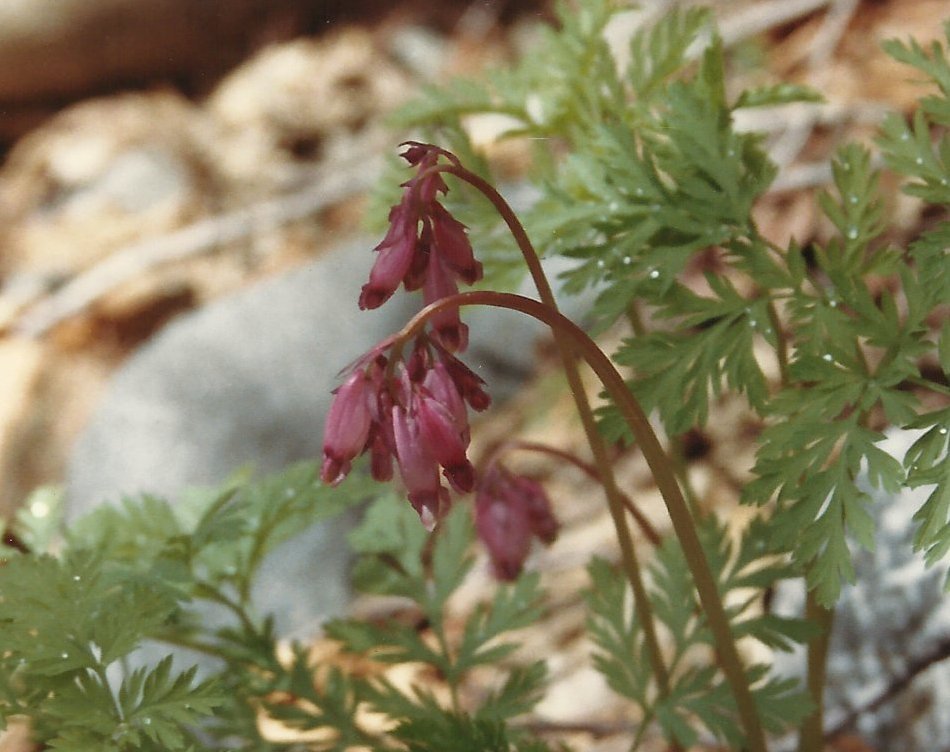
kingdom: Plantae
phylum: Tracheophyta
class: Magnoliopsida
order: Ranunculales
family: Papaveraceae
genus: Dicentra
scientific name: Dicentra formosa
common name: Bleeding-heart
